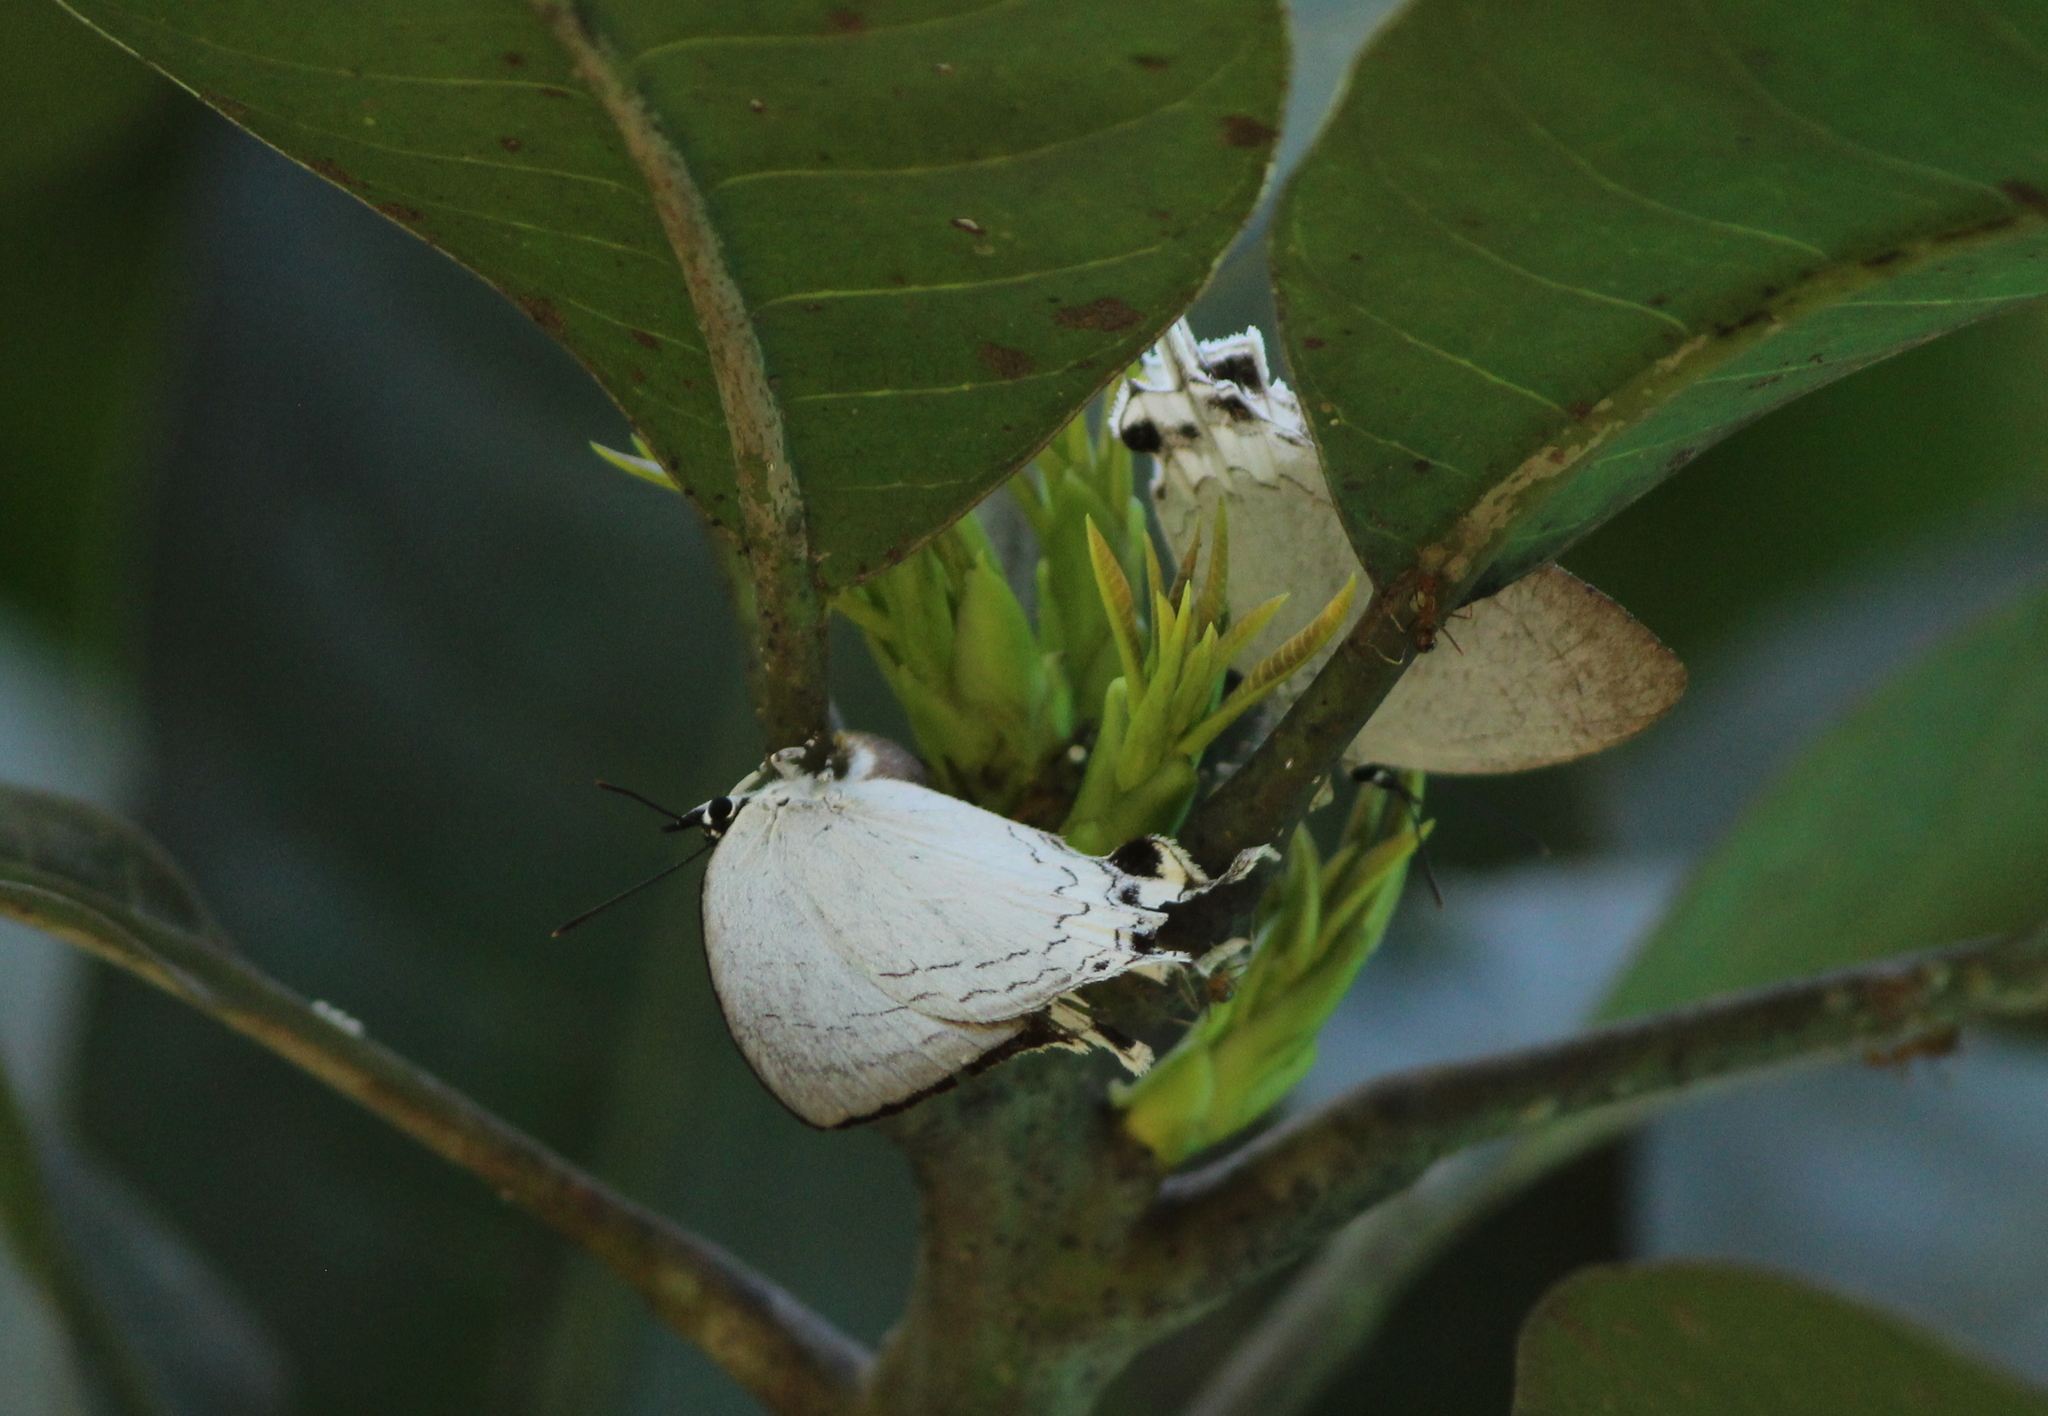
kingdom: Animalia
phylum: Arthropoda
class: Insecta
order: Lepidoptera
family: Lycaenidae
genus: Cheritra
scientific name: Cheritra freja
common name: Common imperial
